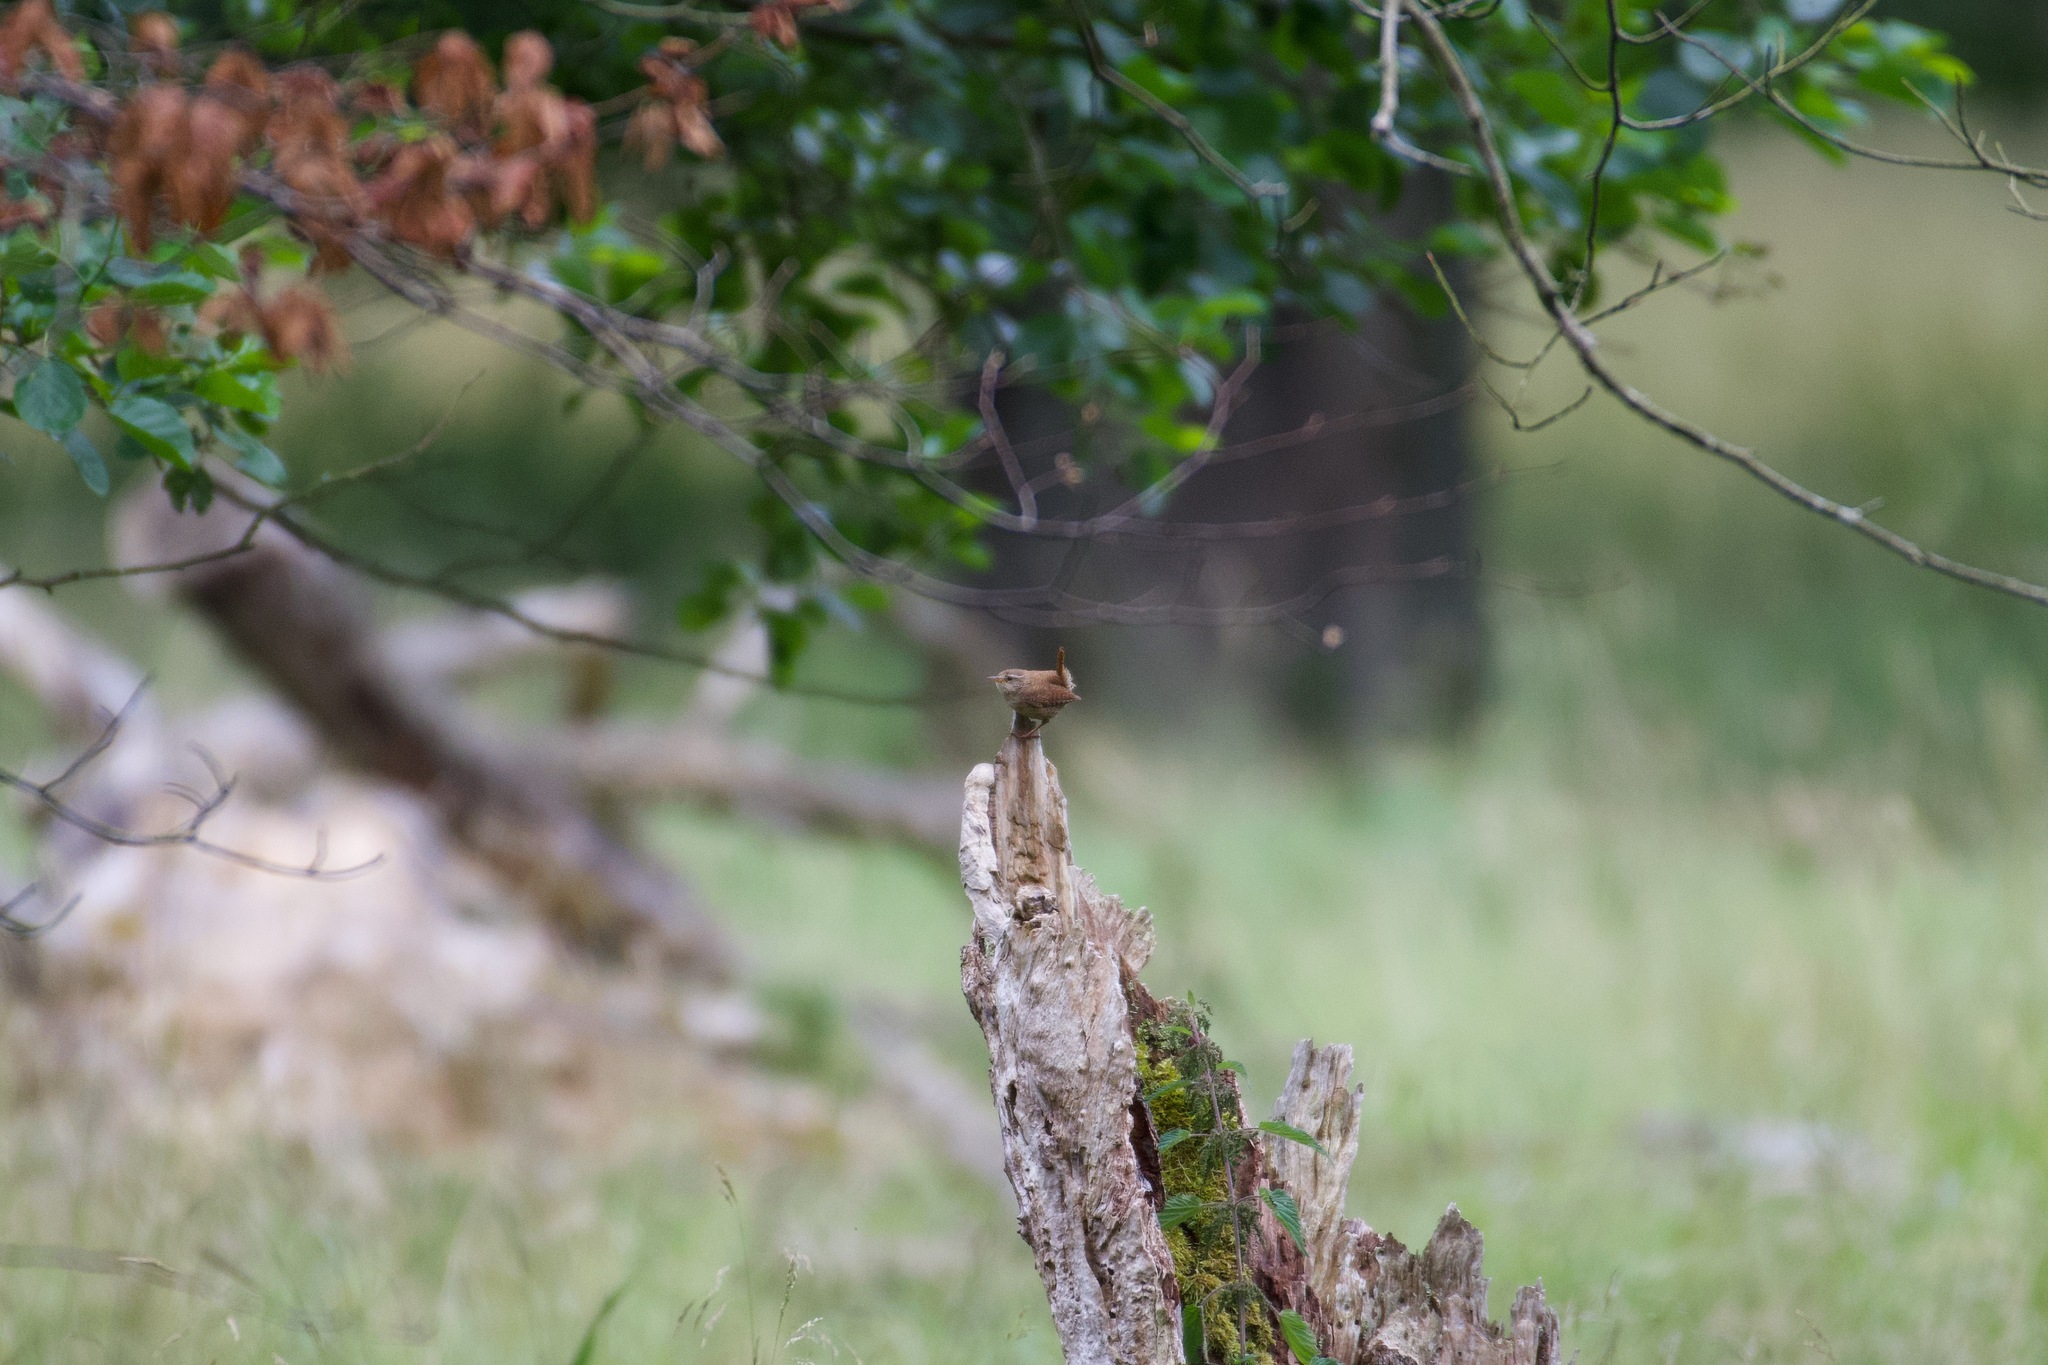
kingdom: Animalia
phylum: Chordata
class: Aves
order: Passeriformes
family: Troglodytidae
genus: Troglodytes
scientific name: Troglodytes troglodytes
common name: Eurasian wren
